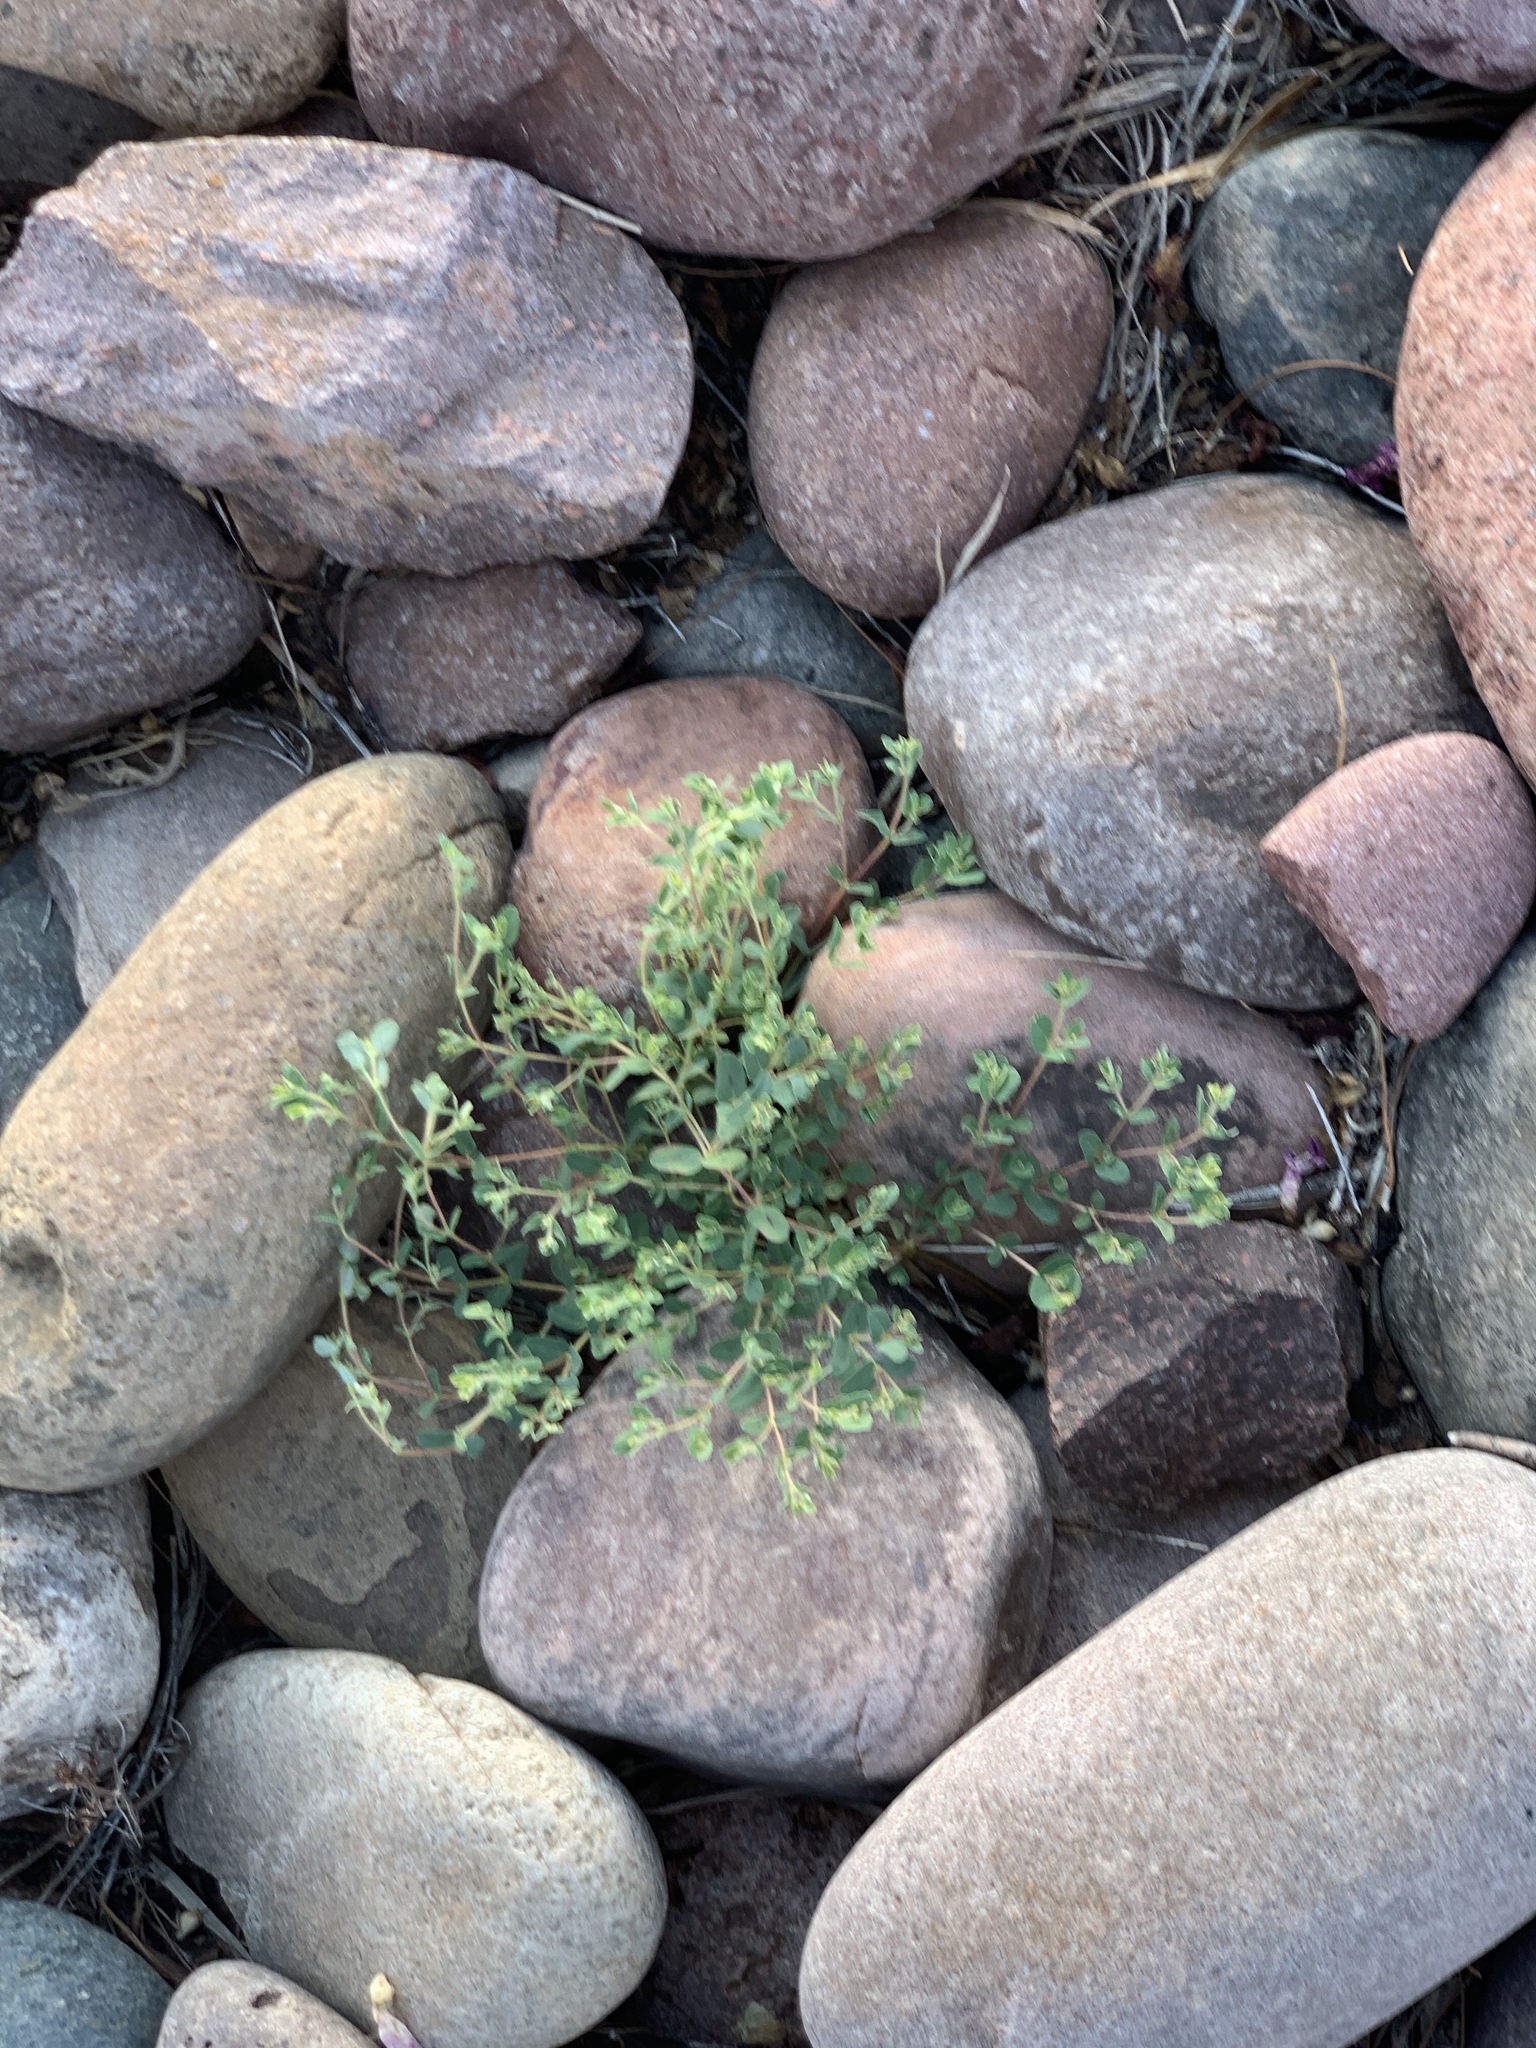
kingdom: Plantae
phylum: Tracheophyta
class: Magnoliopsida
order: Malpighiales
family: Euphorbiaceae
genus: Euphorbia
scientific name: Euphorbia serrula
